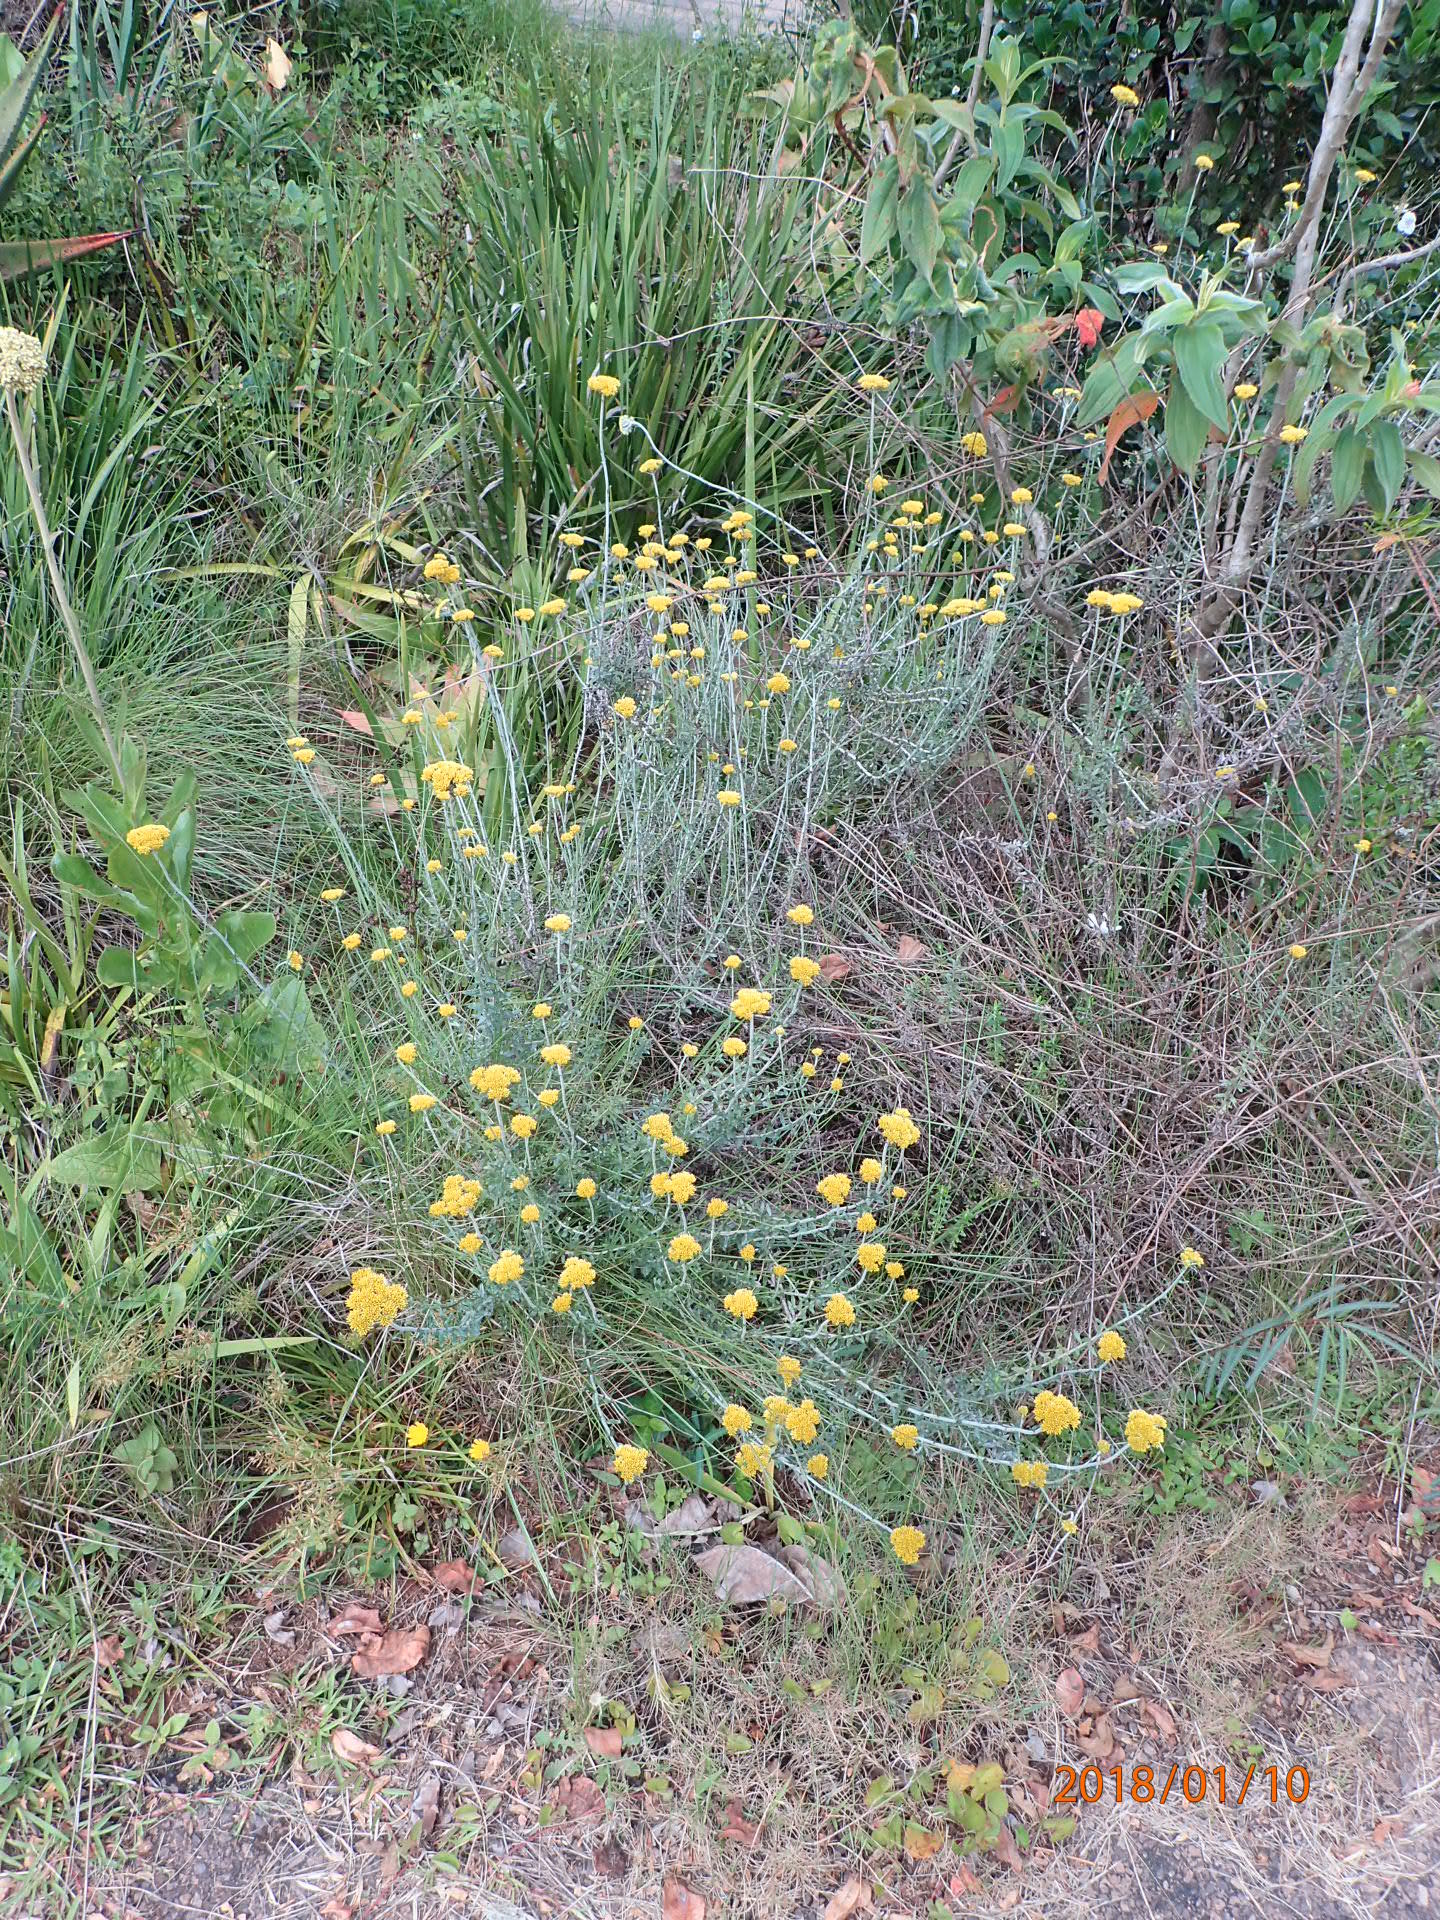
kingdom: Plantae
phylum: Tracheophyta
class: Magnoliopsida
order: Asterales
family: Asteraceae
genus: Helichrysum
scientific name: Helichrysum cymosum
